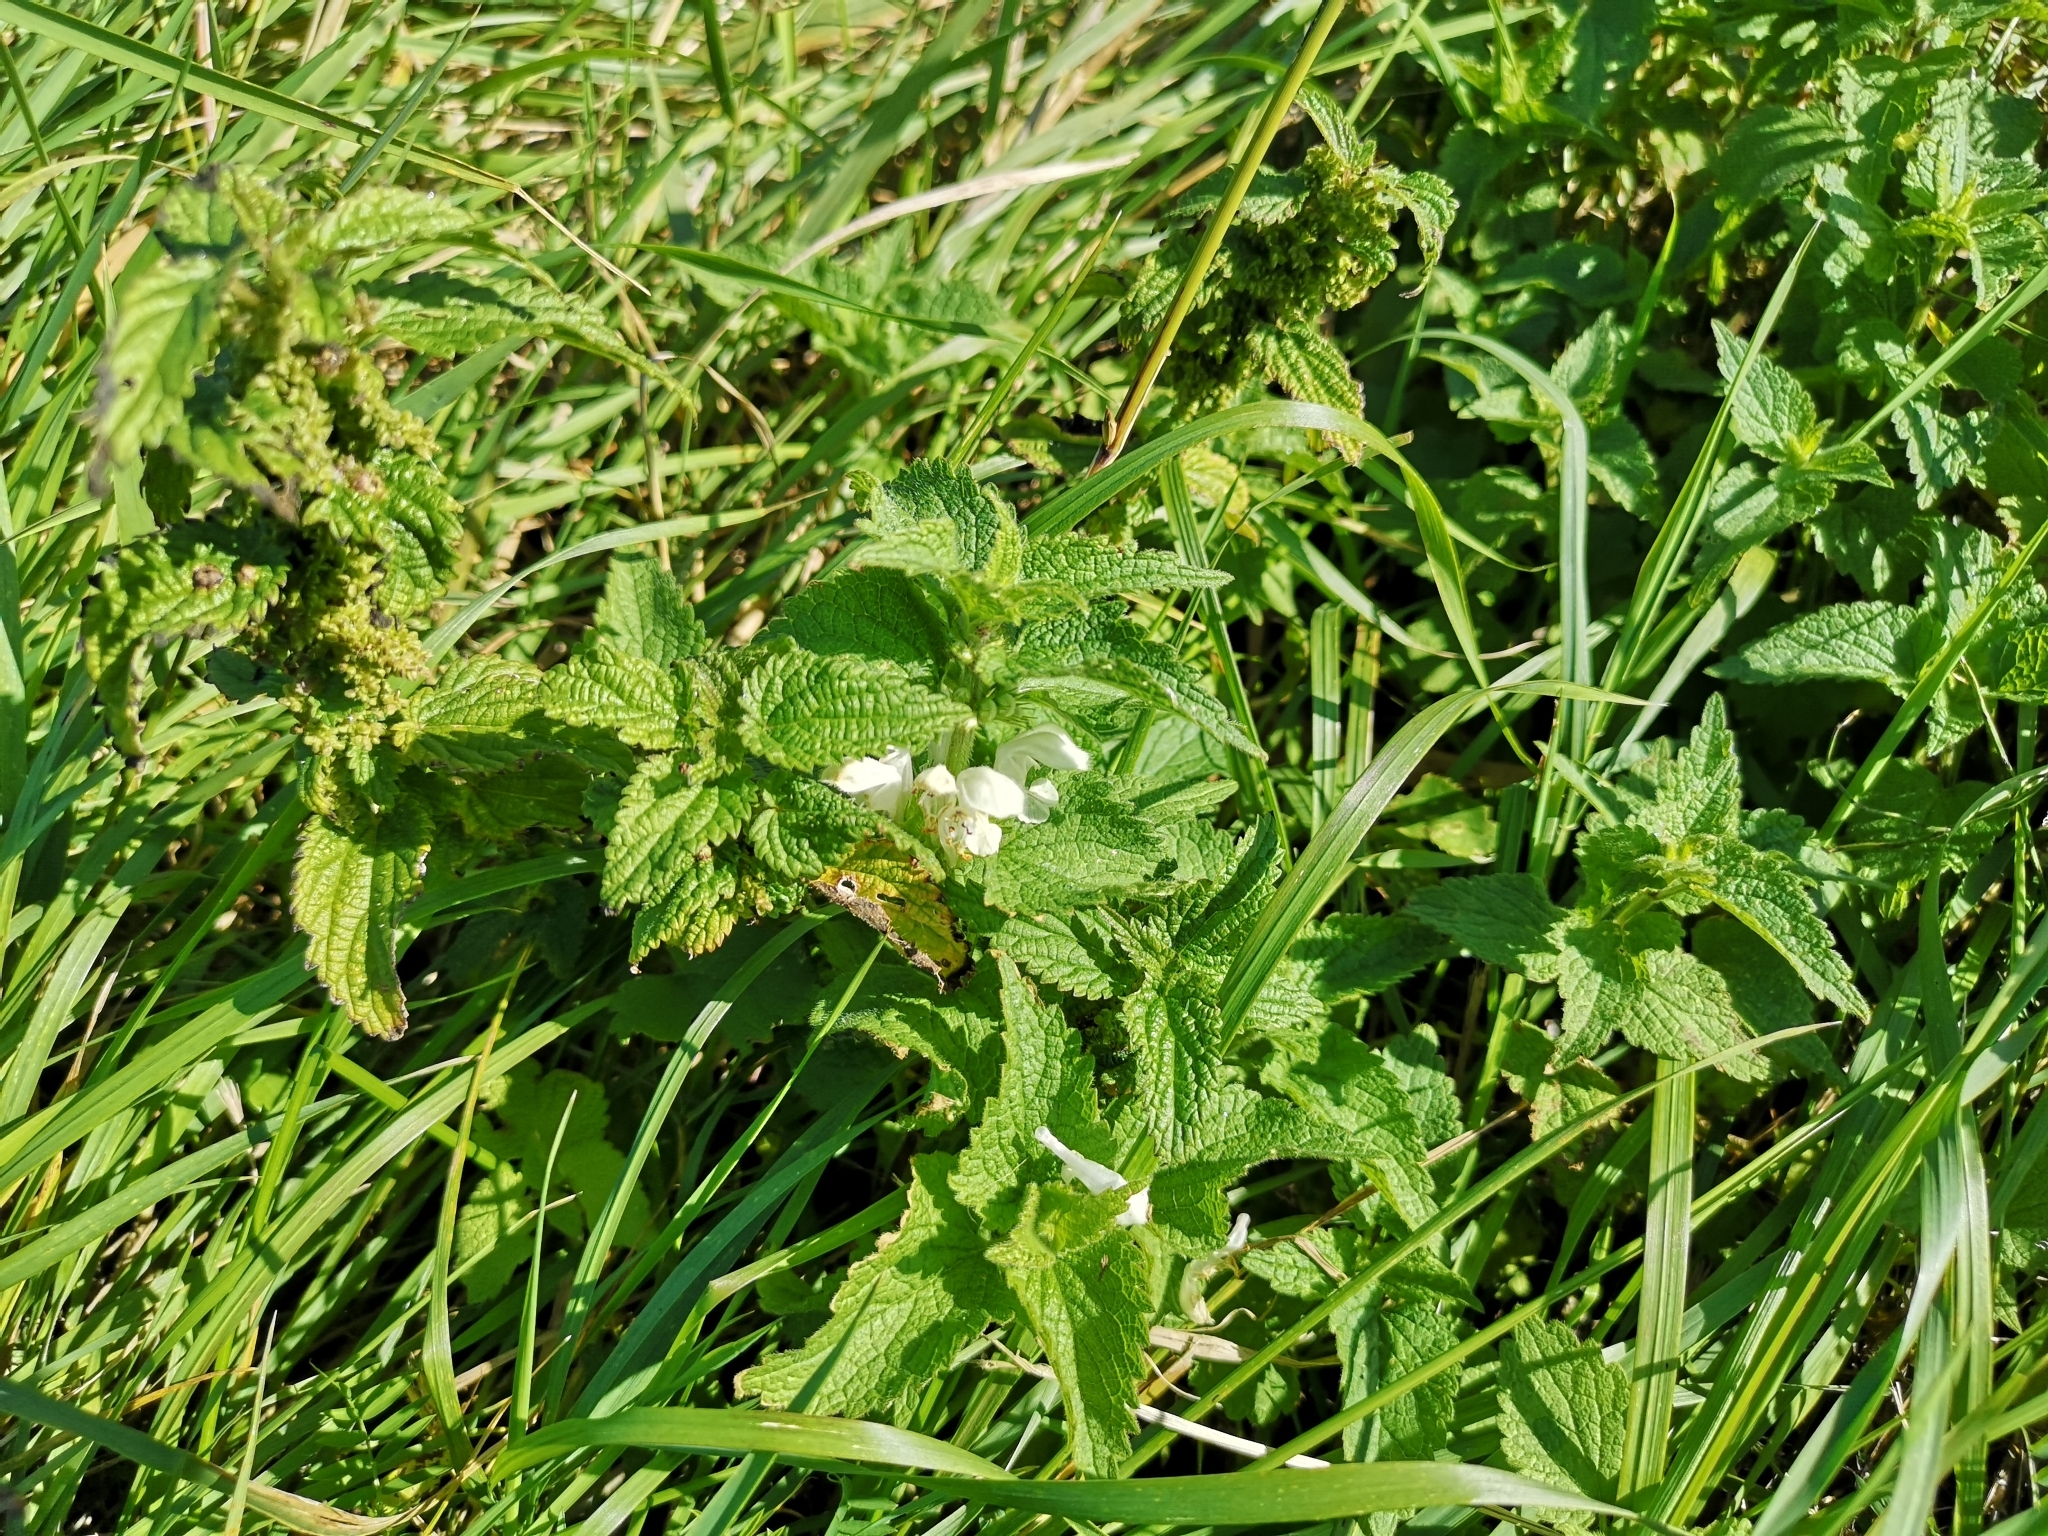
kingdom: Plantae
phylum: Tracheophyta
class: Magnoliopsida
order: Lamiales
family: Lamiaceae
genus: Lamium
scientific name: Lamium album
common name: White dead-nettle
